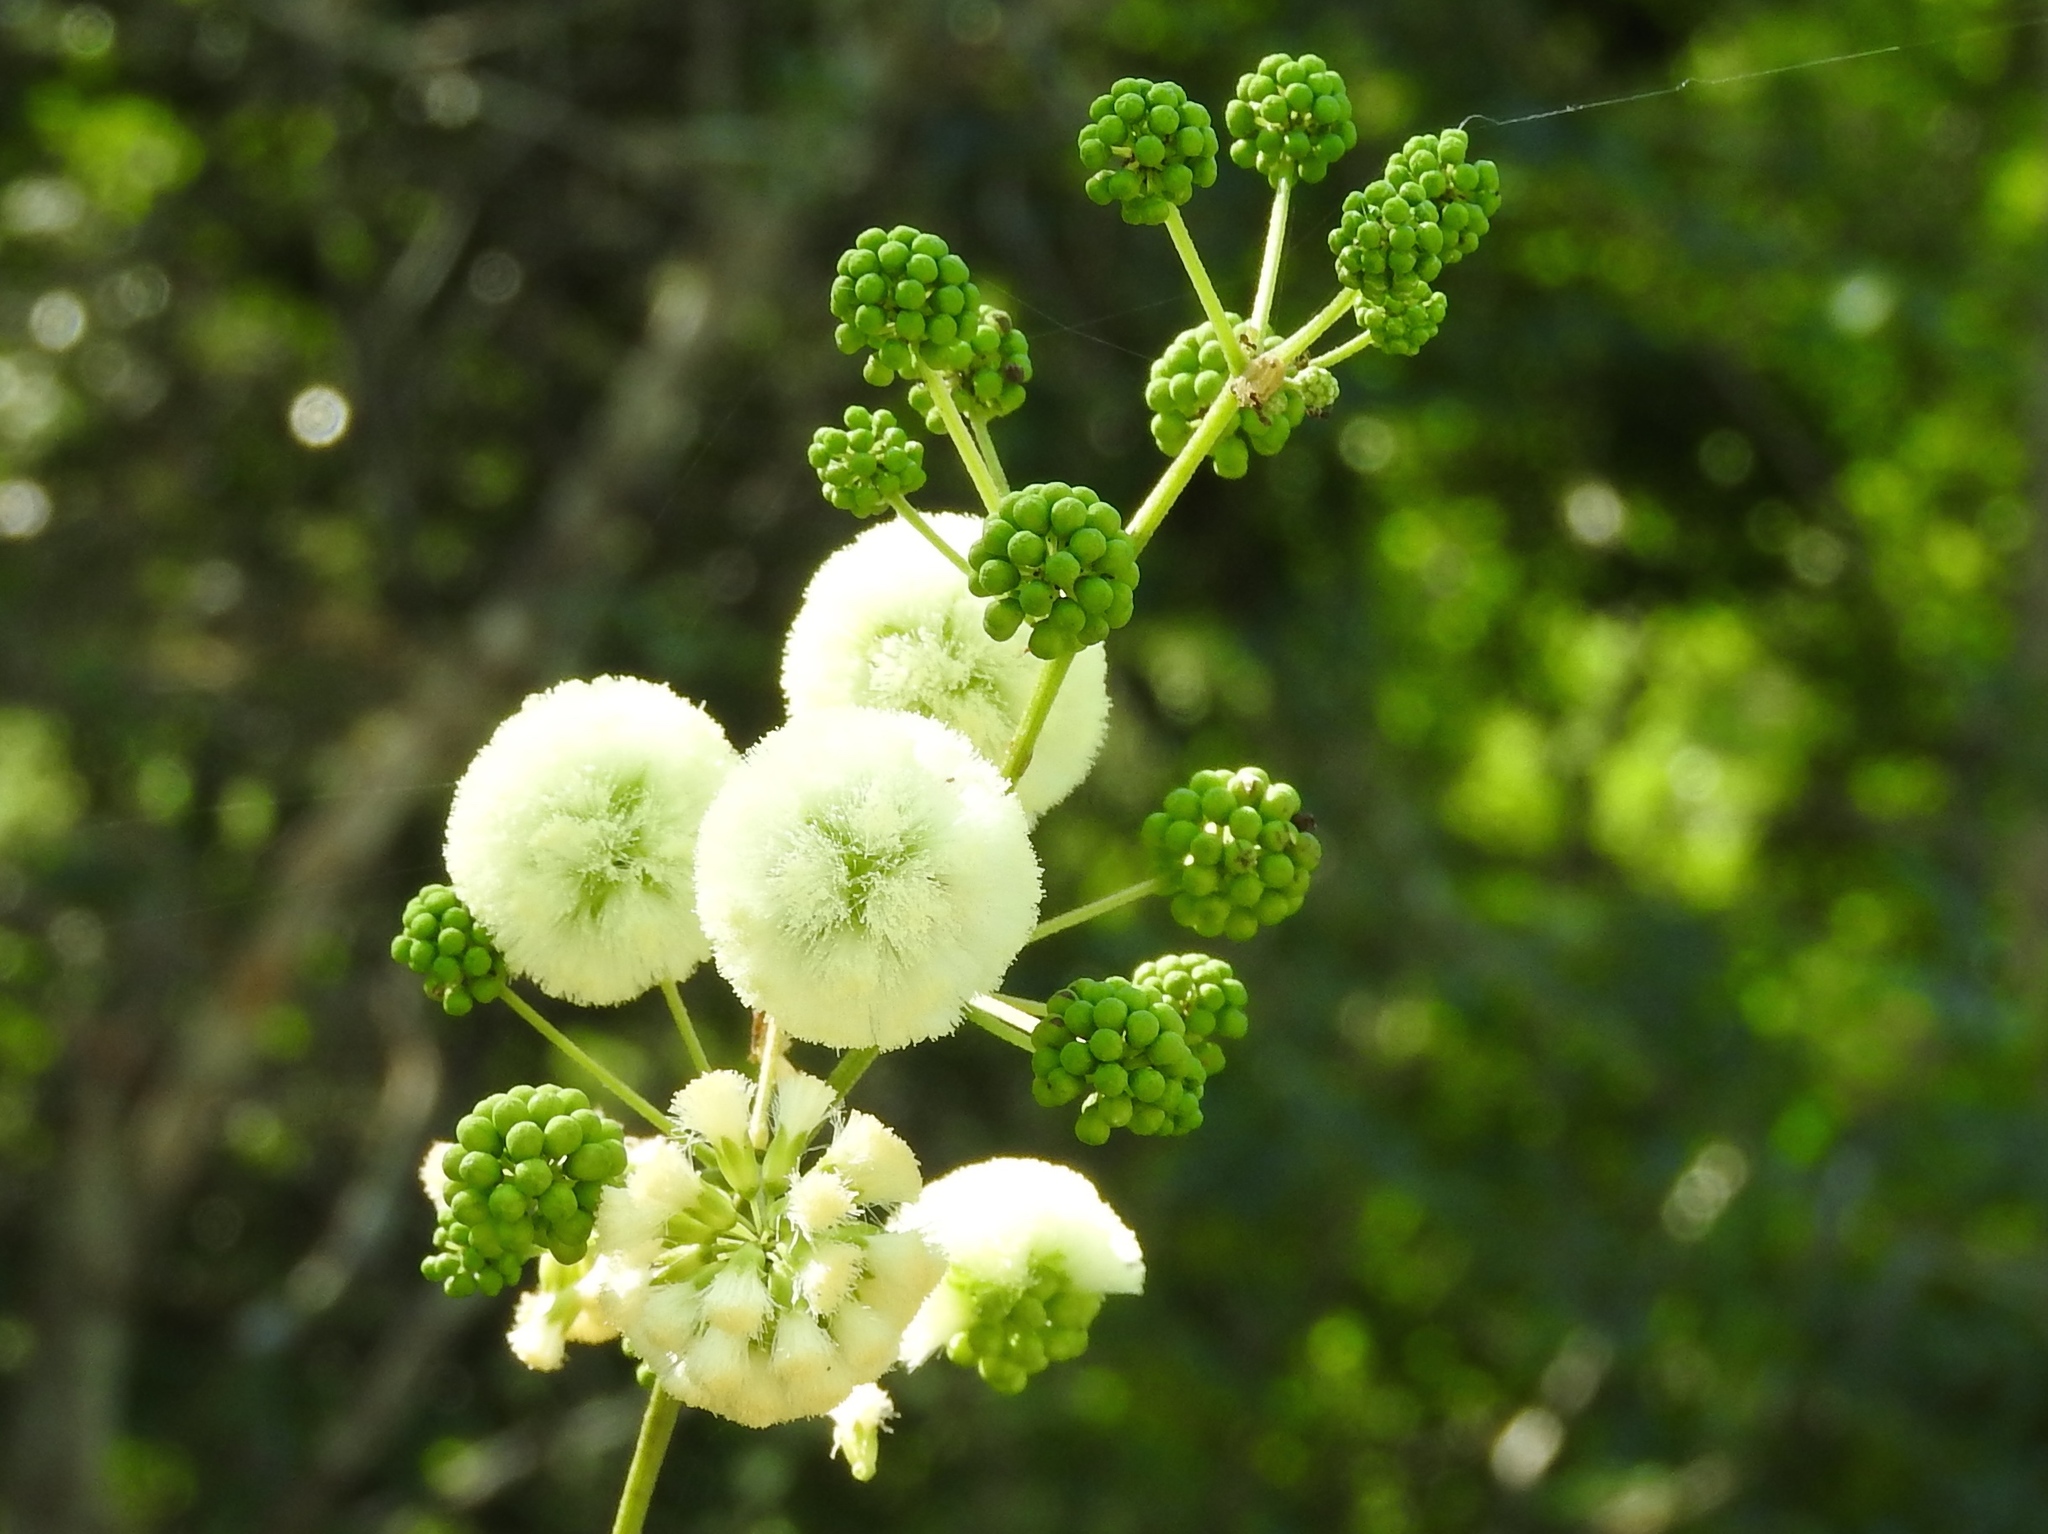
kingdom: Plantae
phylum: Tracheophyta
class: Magnoliopsida
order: Fabales
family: Fabaceae
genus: Leucaena
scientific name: Leucaena leucocephala
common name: White leadtree
